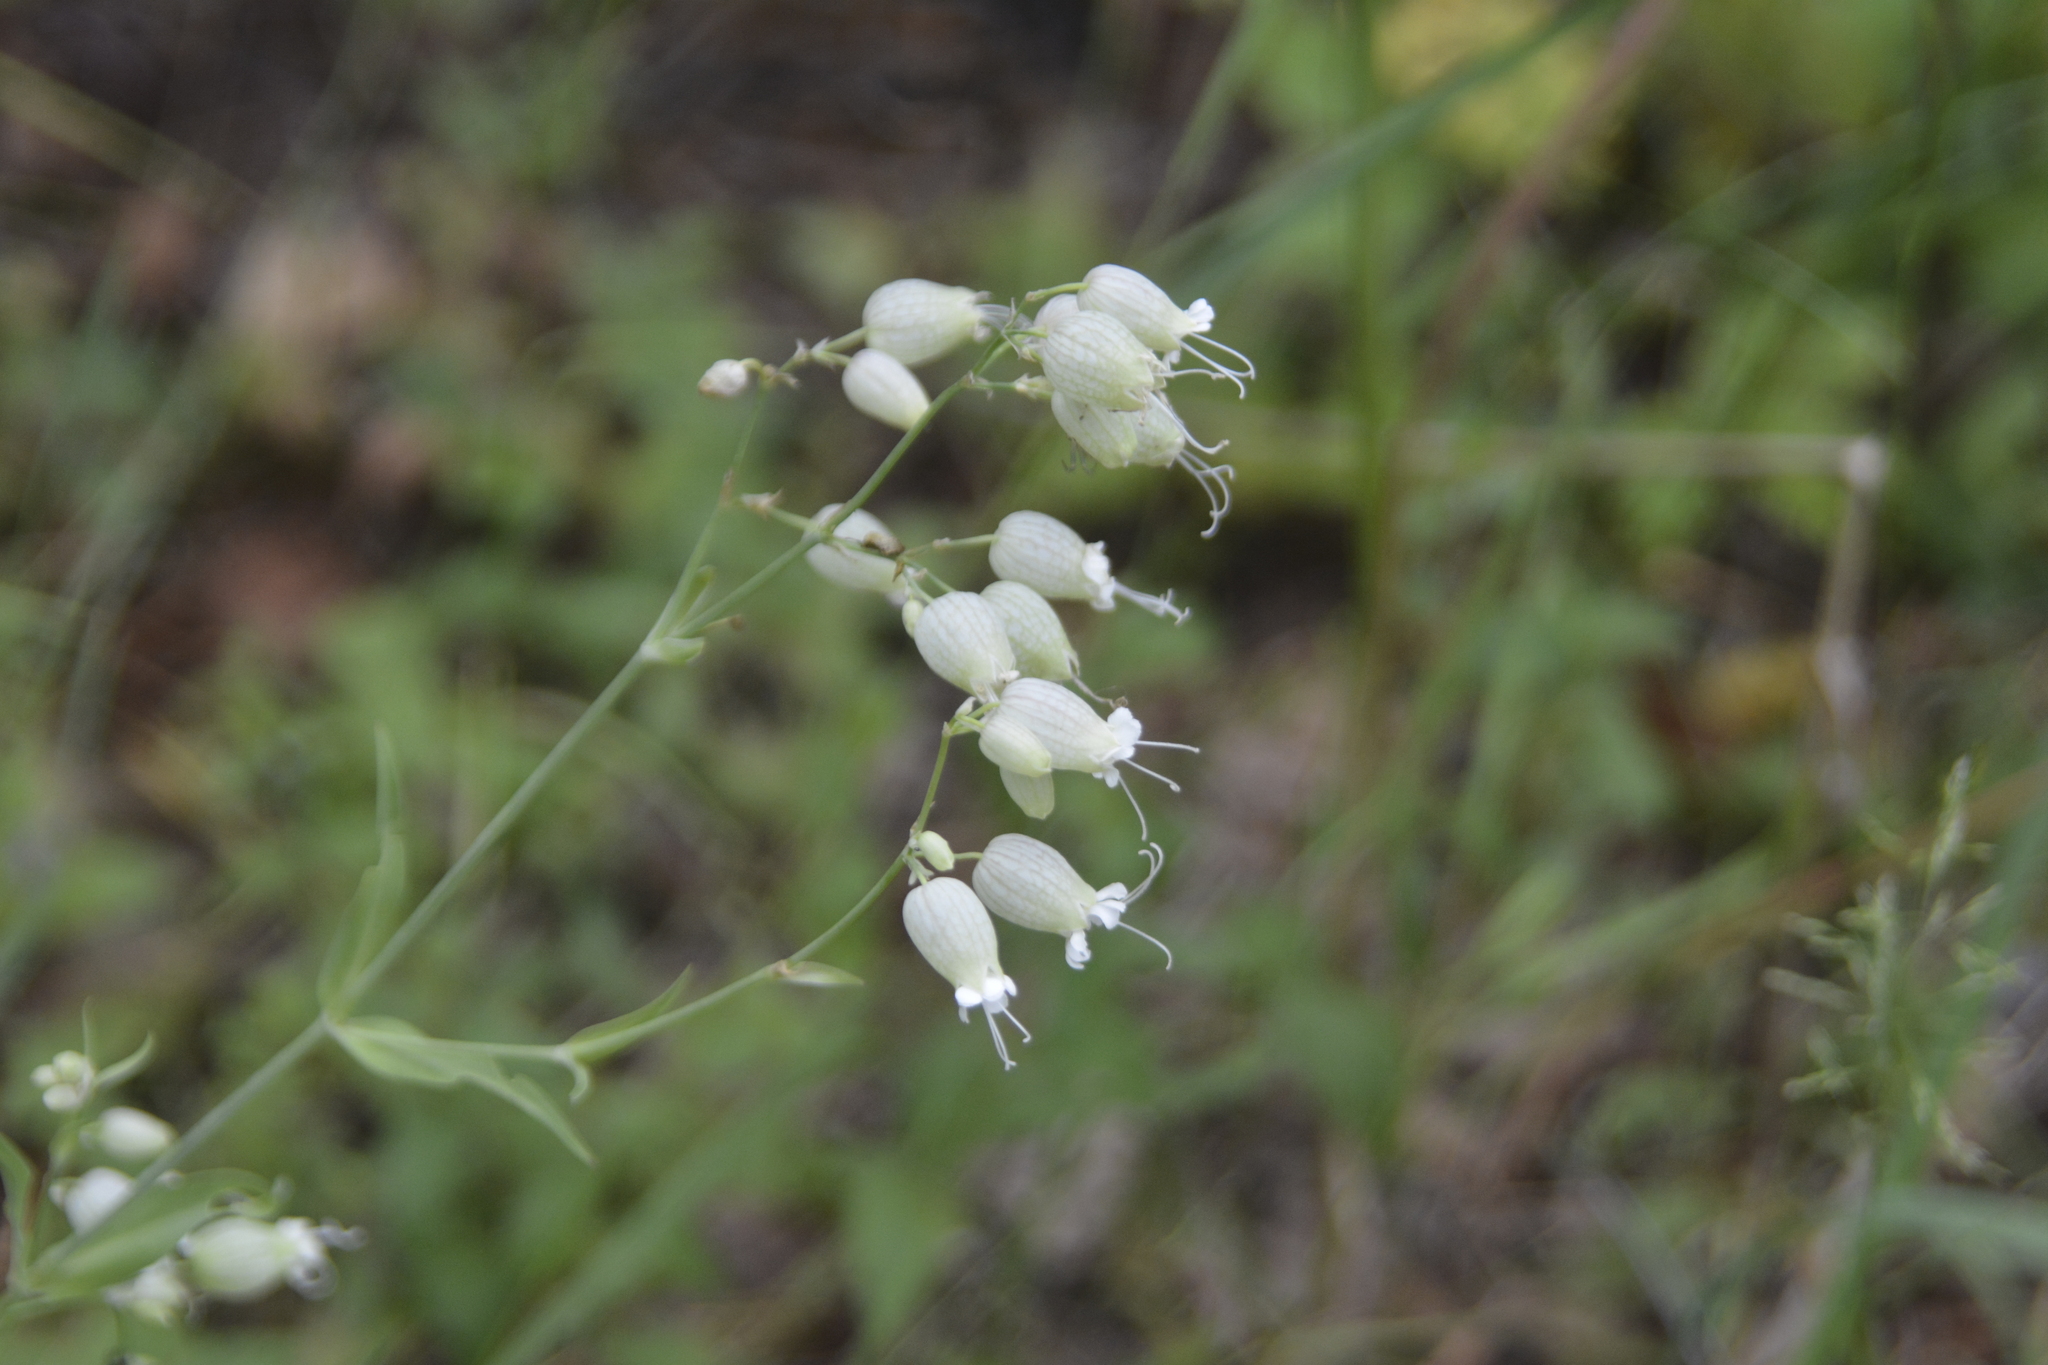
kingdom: Plantae
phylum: Tracheophyta
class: Magnoliopsida
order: Caryophyllales
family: Caryophyllaceae
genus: Silene
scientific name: Silene vulgaris
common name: Bladder campion
